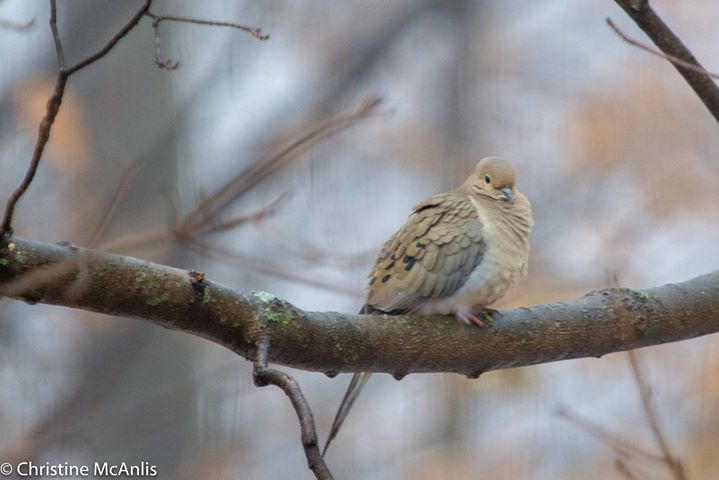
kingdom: Animalia
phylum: Chordata
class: Aves
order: Columbiformes
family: Columbidae
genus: Zenaida
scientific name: Zenaida macroura
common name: Mourning dove
